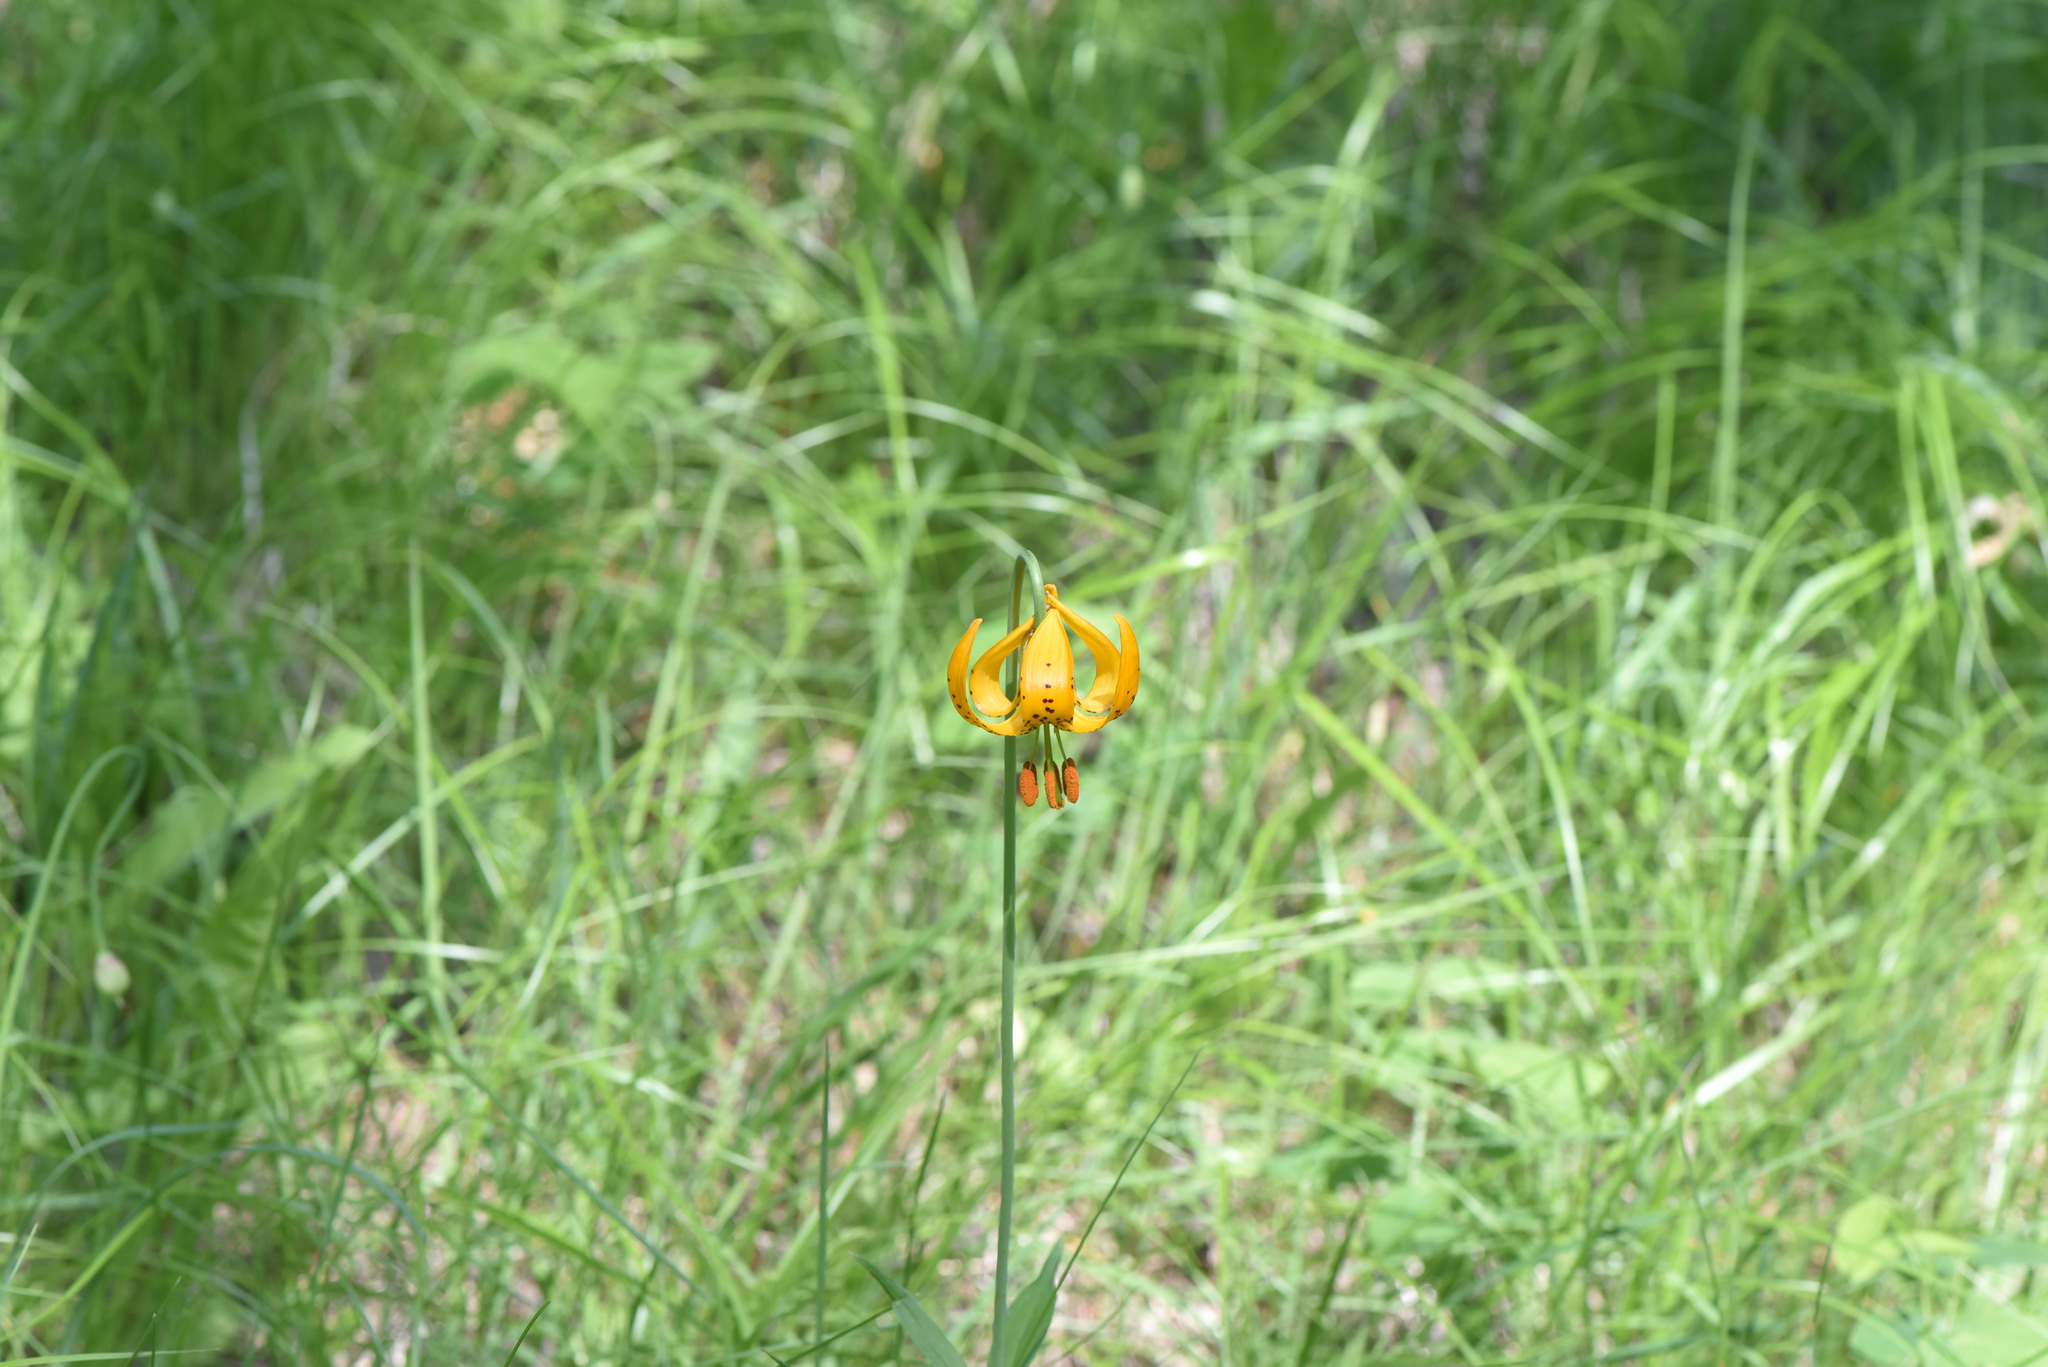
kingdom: Plantae
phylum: Tracheophyta
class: Liliopsida
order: Liliales
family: Liliaceae
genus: Lilium
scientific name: Lilium columbianum
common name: Columbia lily
